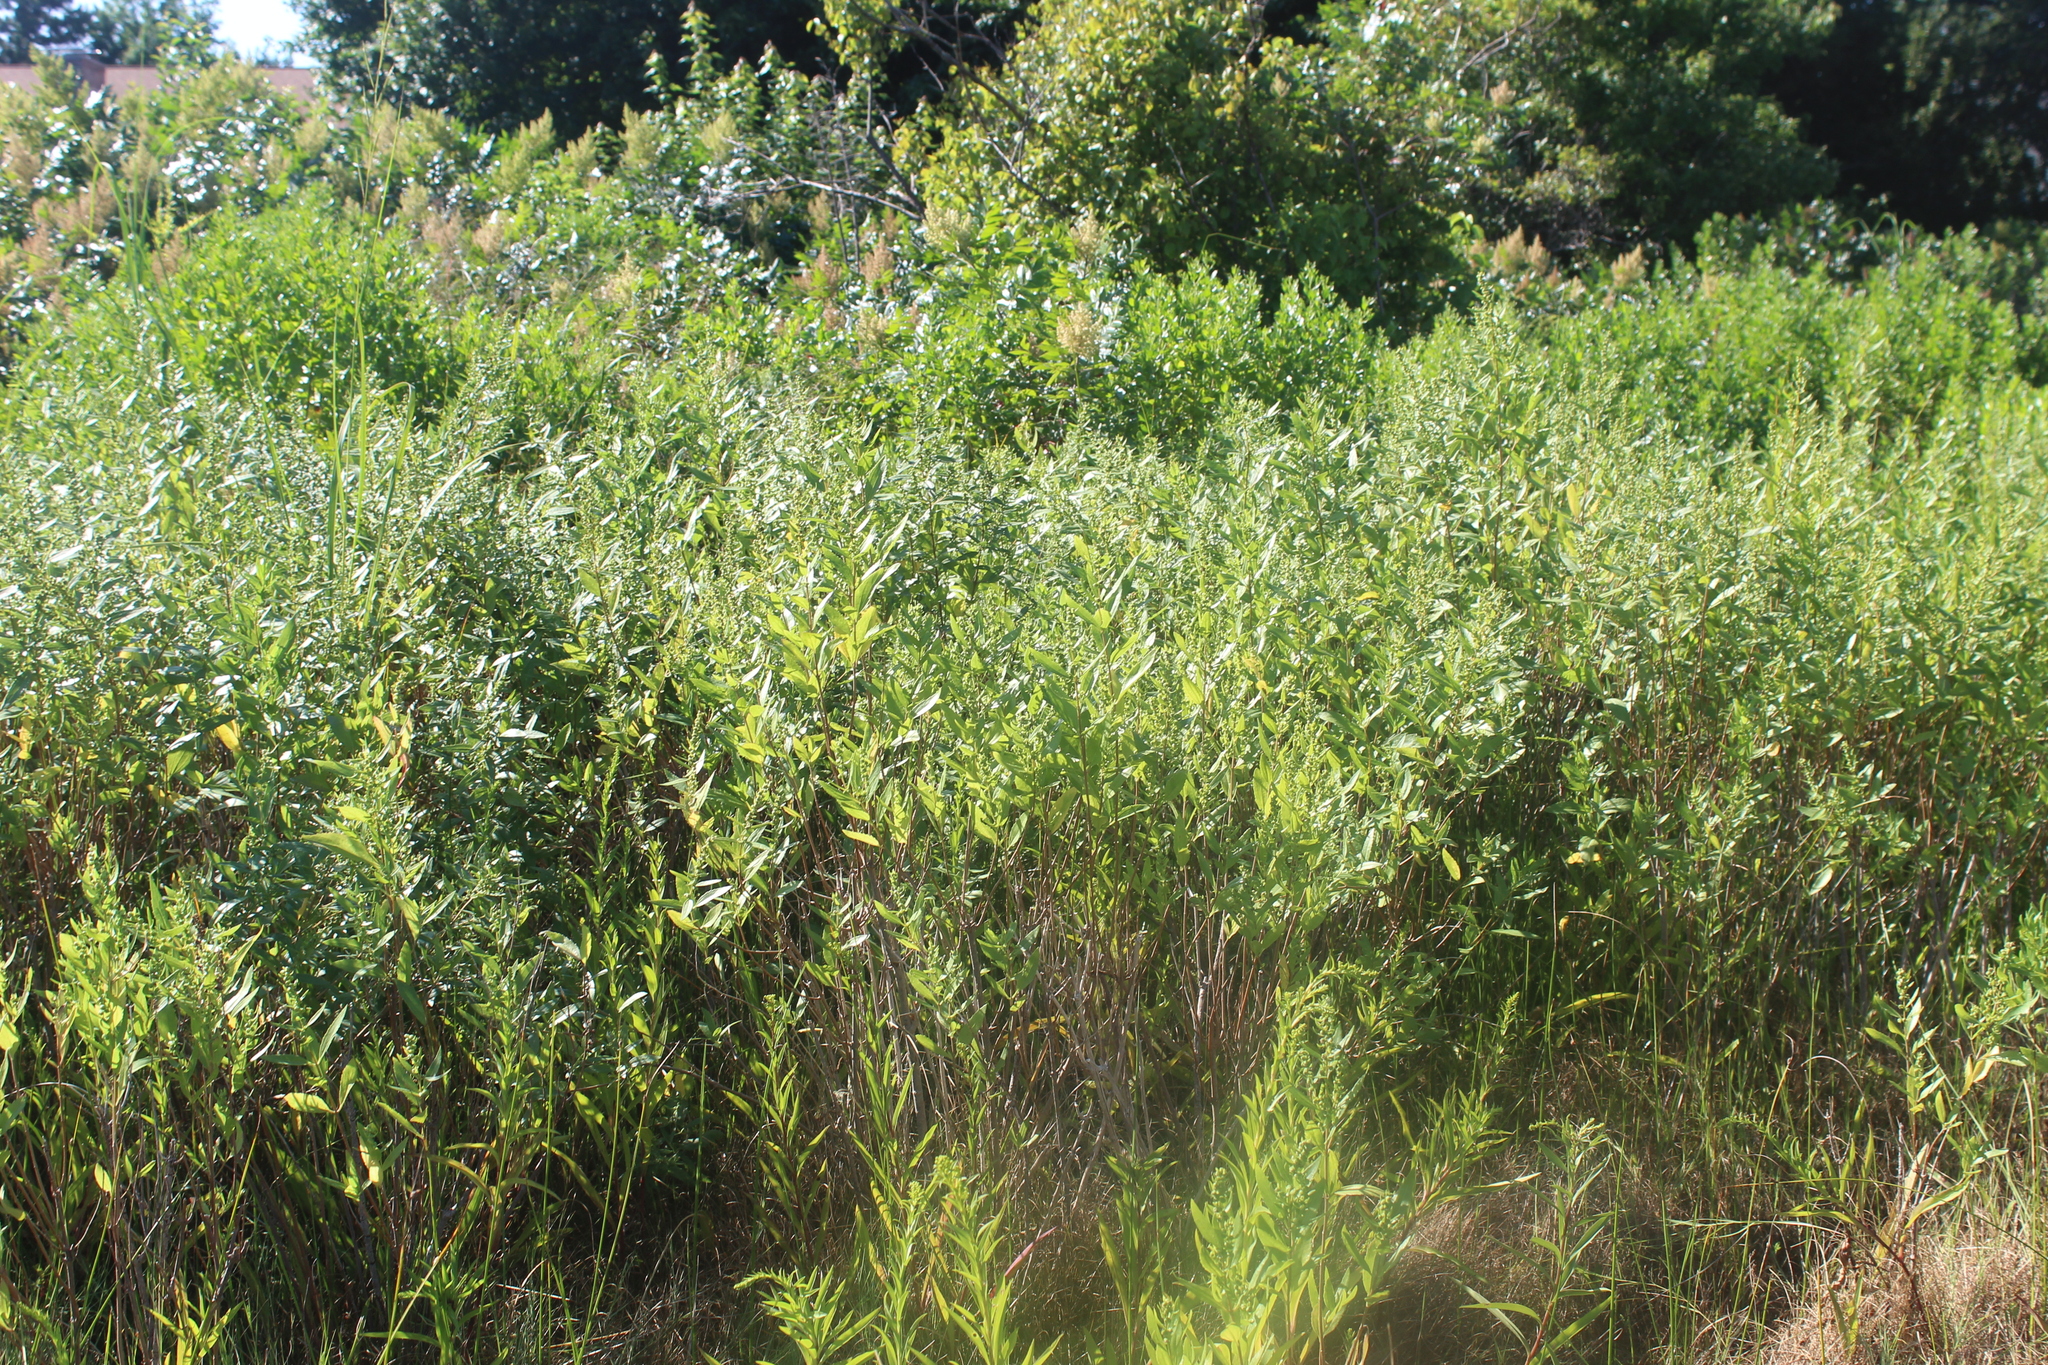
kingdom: Plantae
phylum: Tracheophyta
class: Magnoliopsida
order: Asterales
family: Asteraceae
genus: Baccharis
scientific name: Baccharis halimifolia
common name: Eastern baccharis
